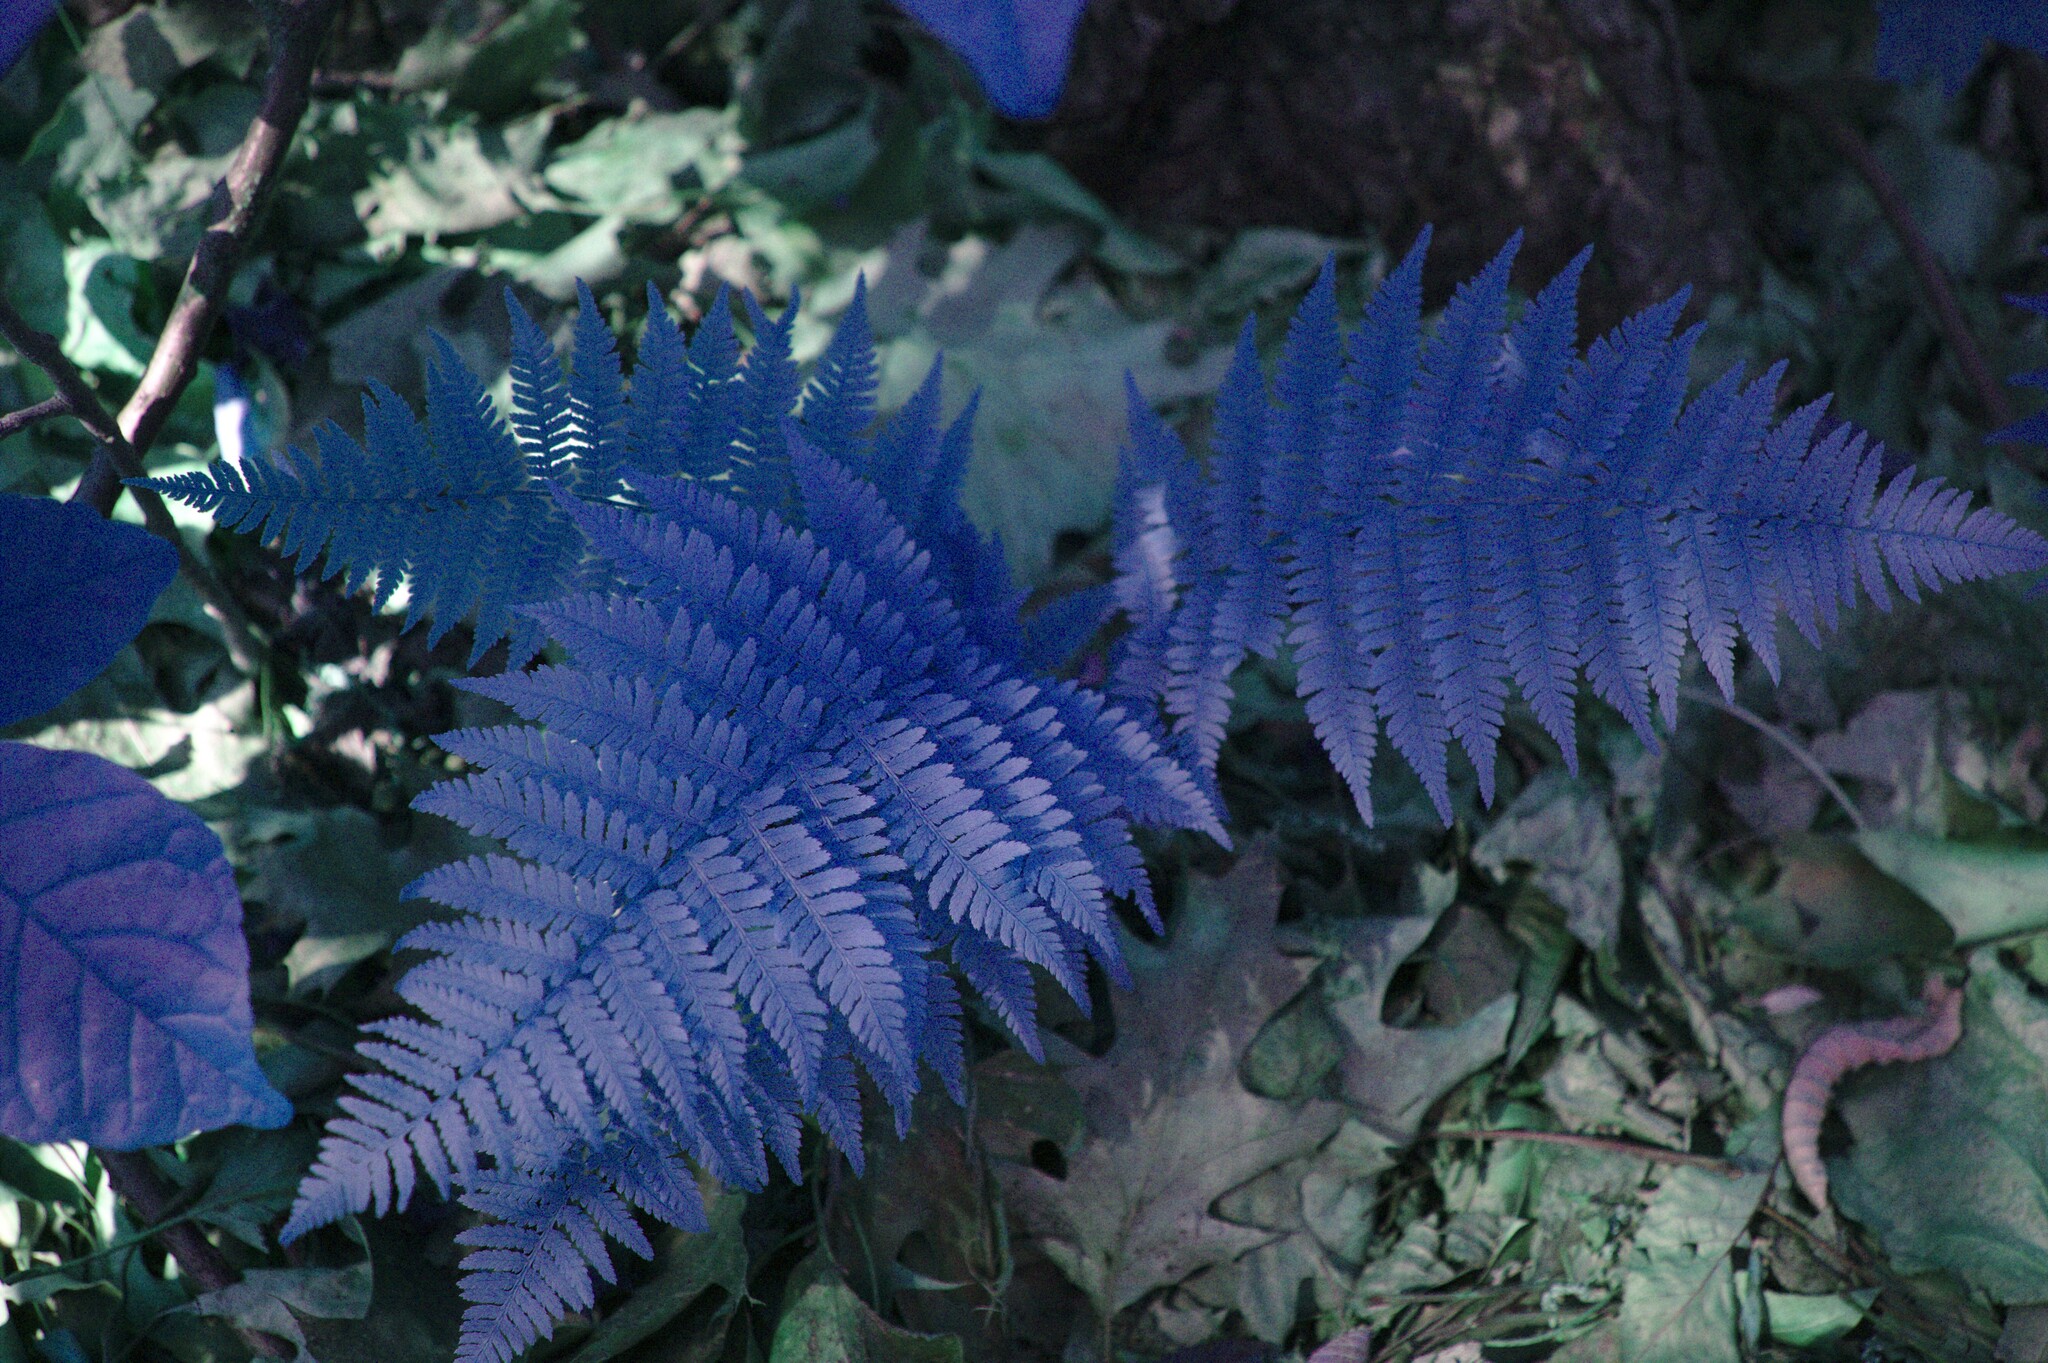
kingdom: Plantae
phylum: Tracheophyta
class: Polypodiopsida
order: Polypodiales
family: Athyriaceae
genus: Athyrium
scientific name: Athyrium angustum
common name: Northern lady fern
